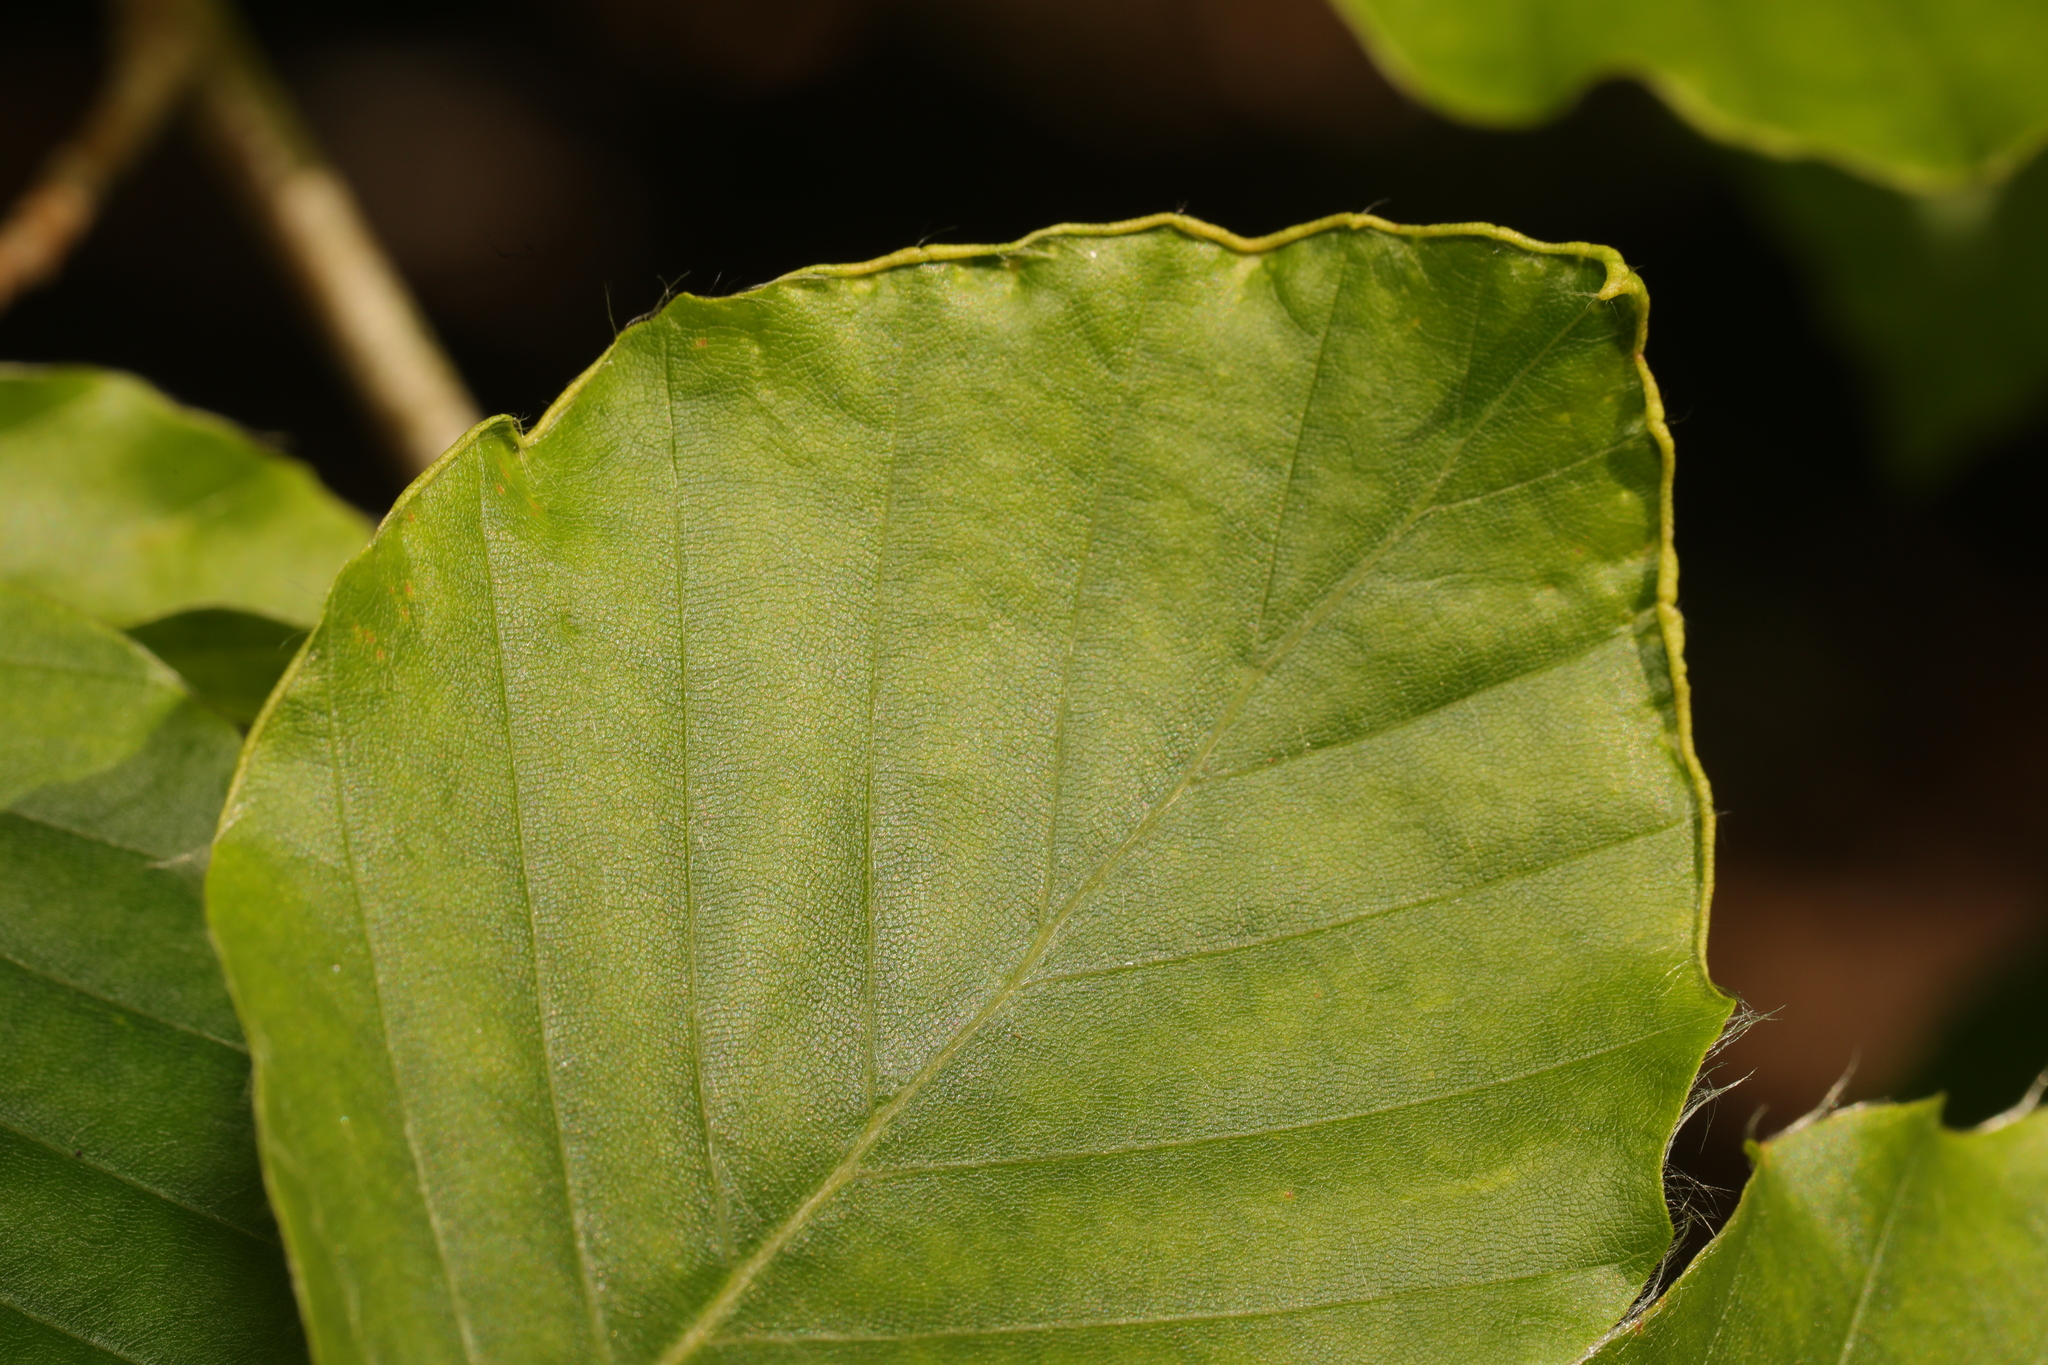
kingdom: Animalia
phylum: Arthropoda
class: Arachnida
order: Trombidiformes
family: Eriophyidae
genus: Acalitus
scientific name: Acalitus stenaspis
